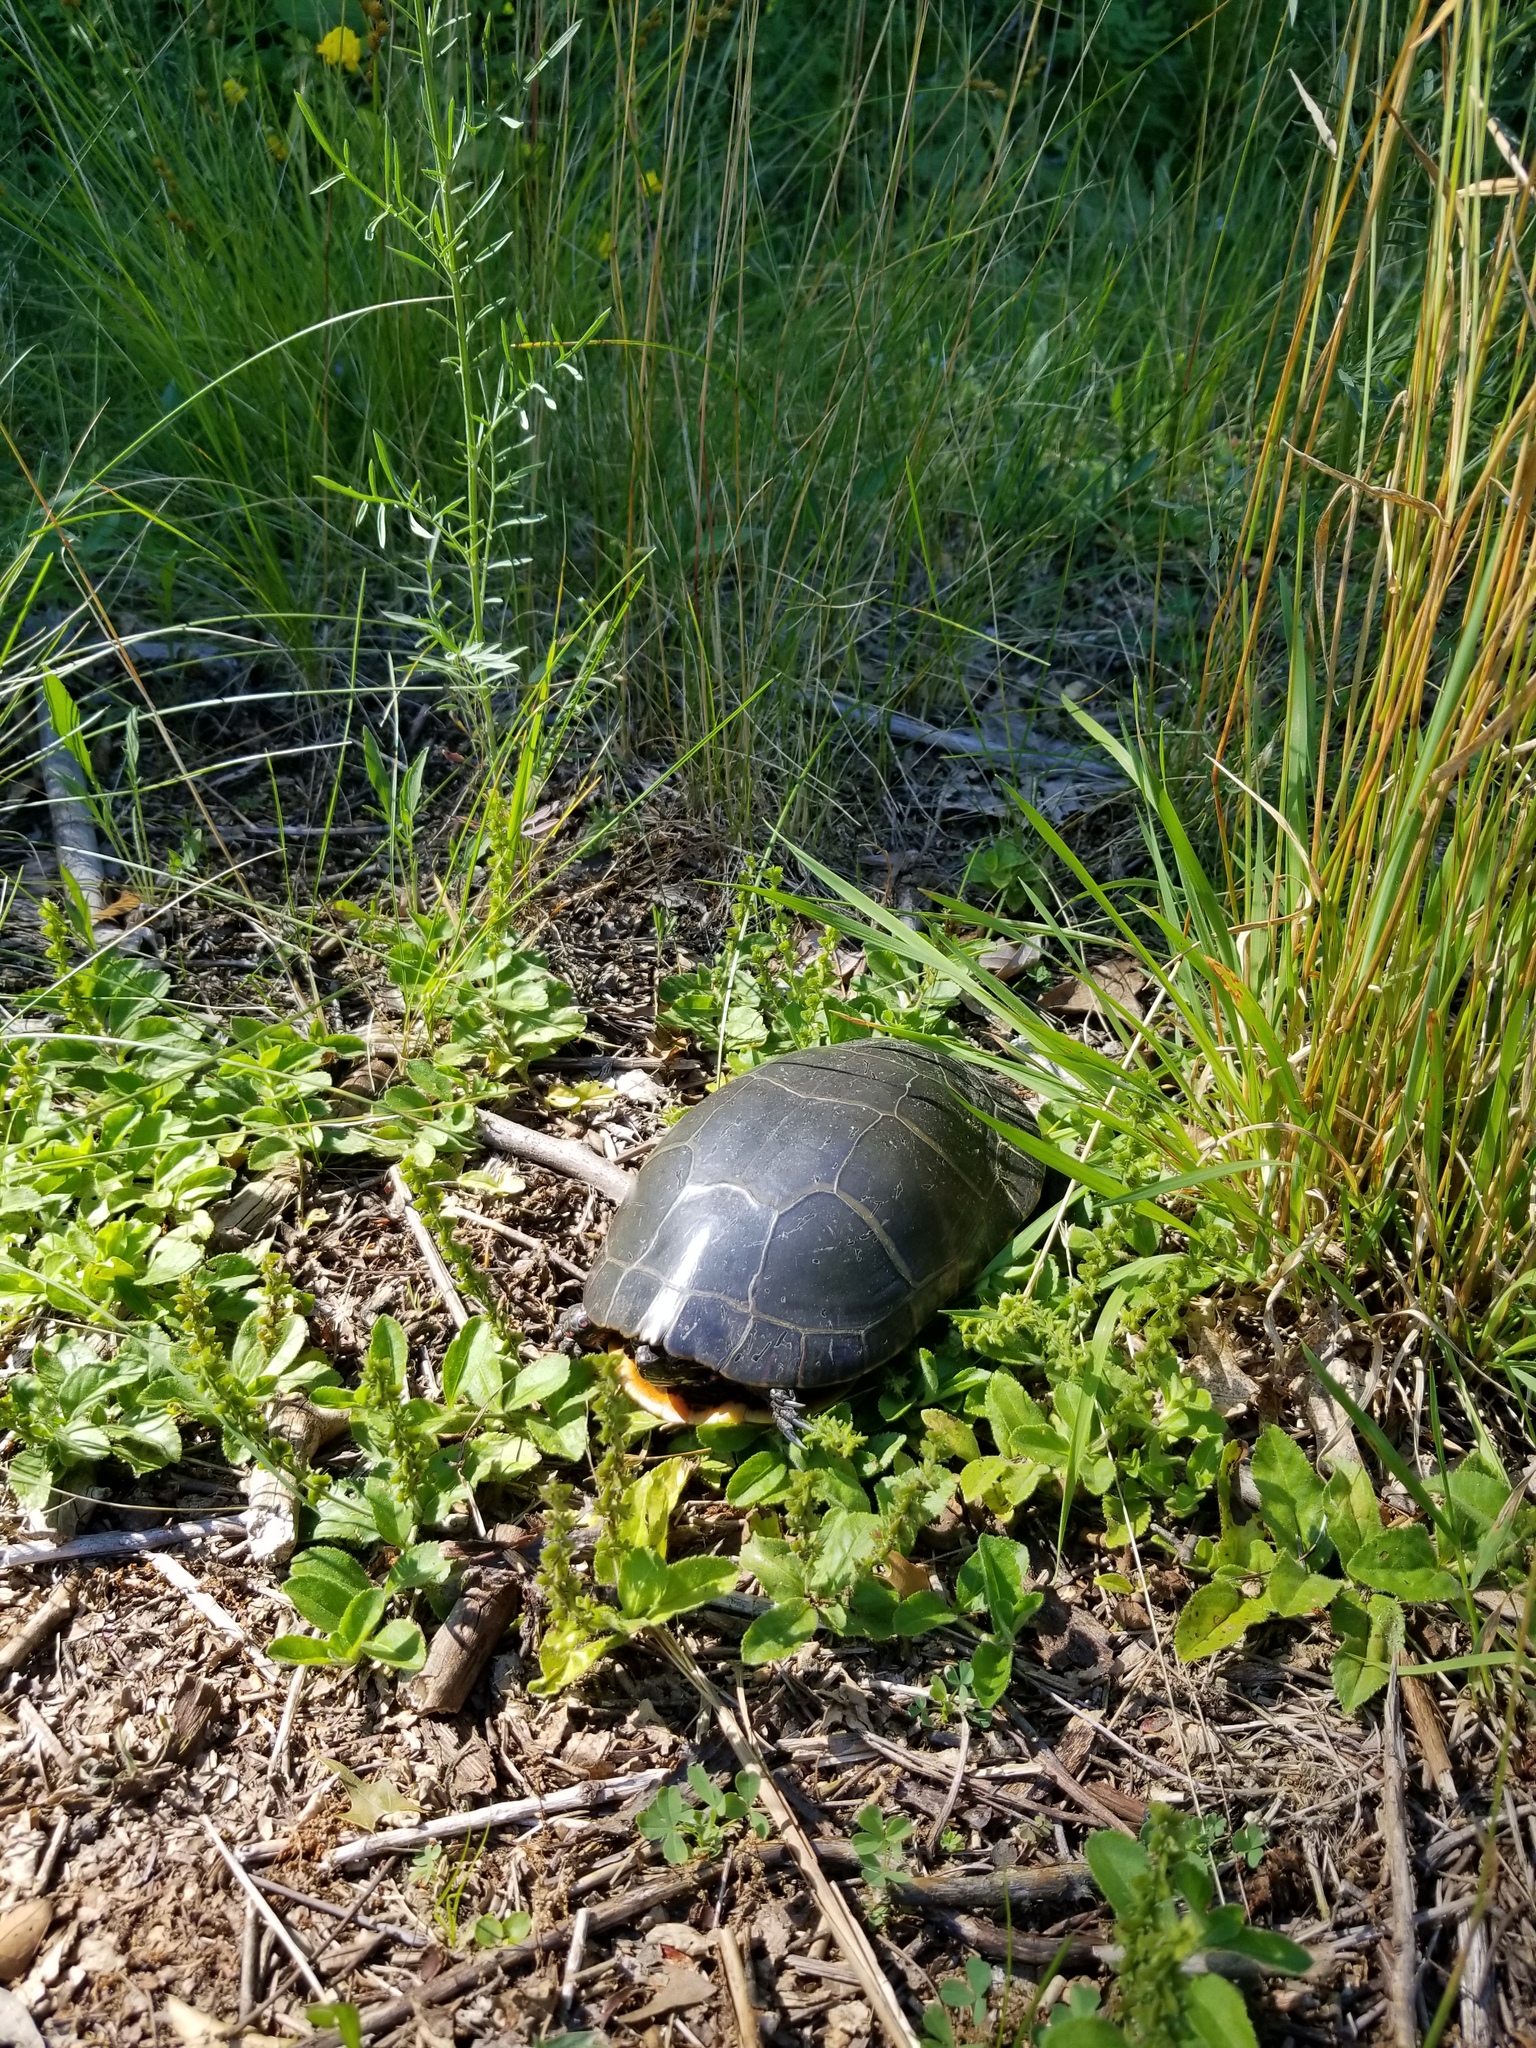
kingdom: Animalia
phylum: Chordata
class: Testudines
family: Emydidae
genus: Chrysemys
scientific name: Chrysemys picta
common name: Painted turtle
